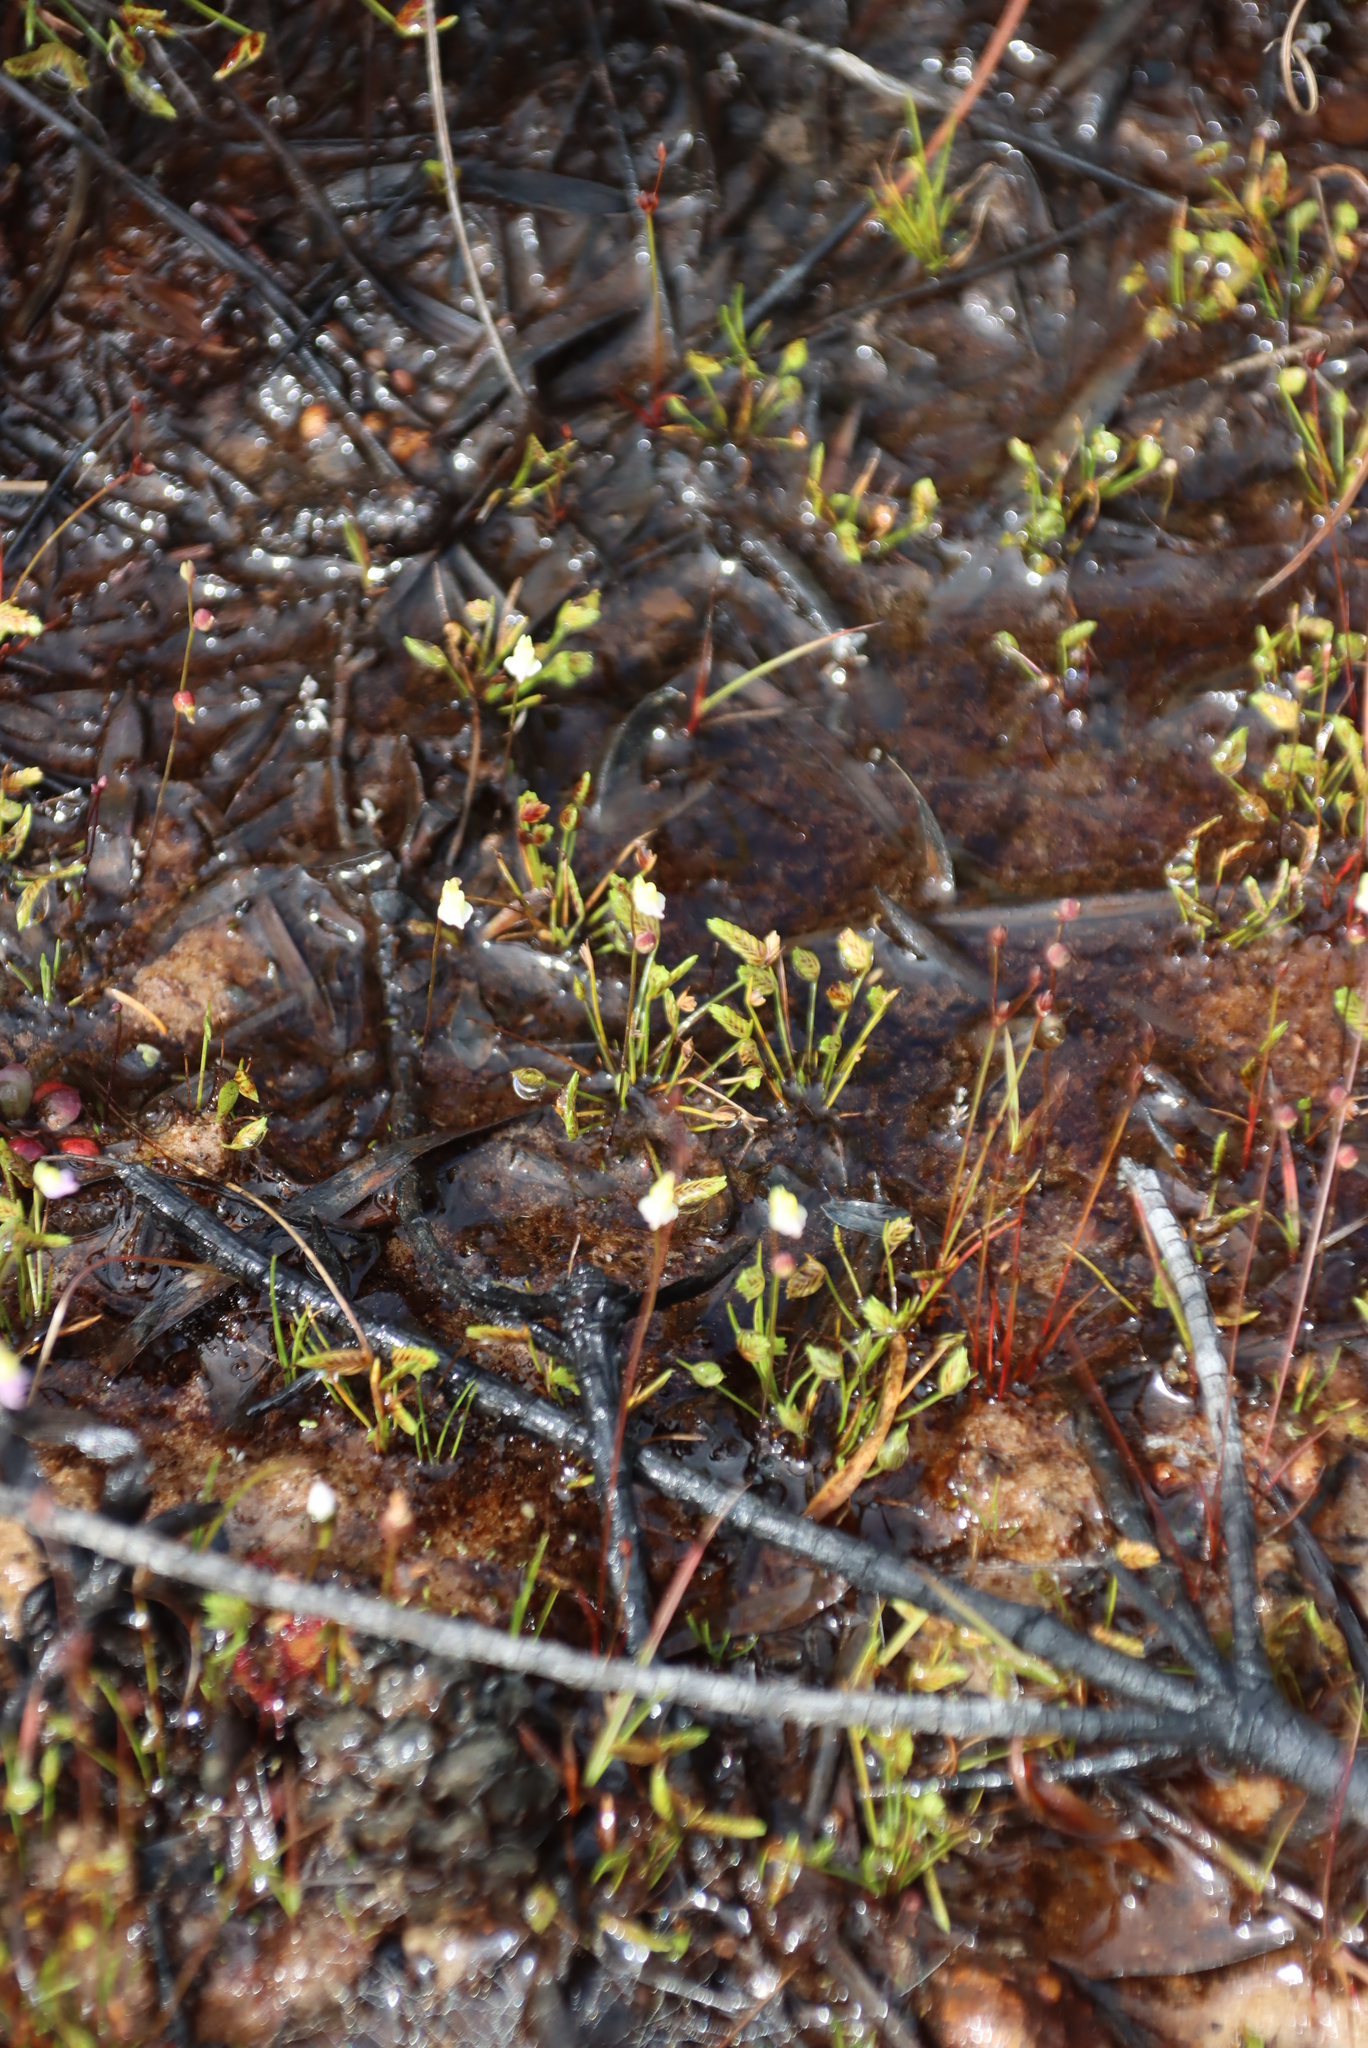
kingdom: Plantae
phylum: Tracheophyta
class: Liliopsida
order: Poales
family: Cyperaceae
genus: Isolepis
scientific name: Isolepis levynsiana
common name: Sedge
